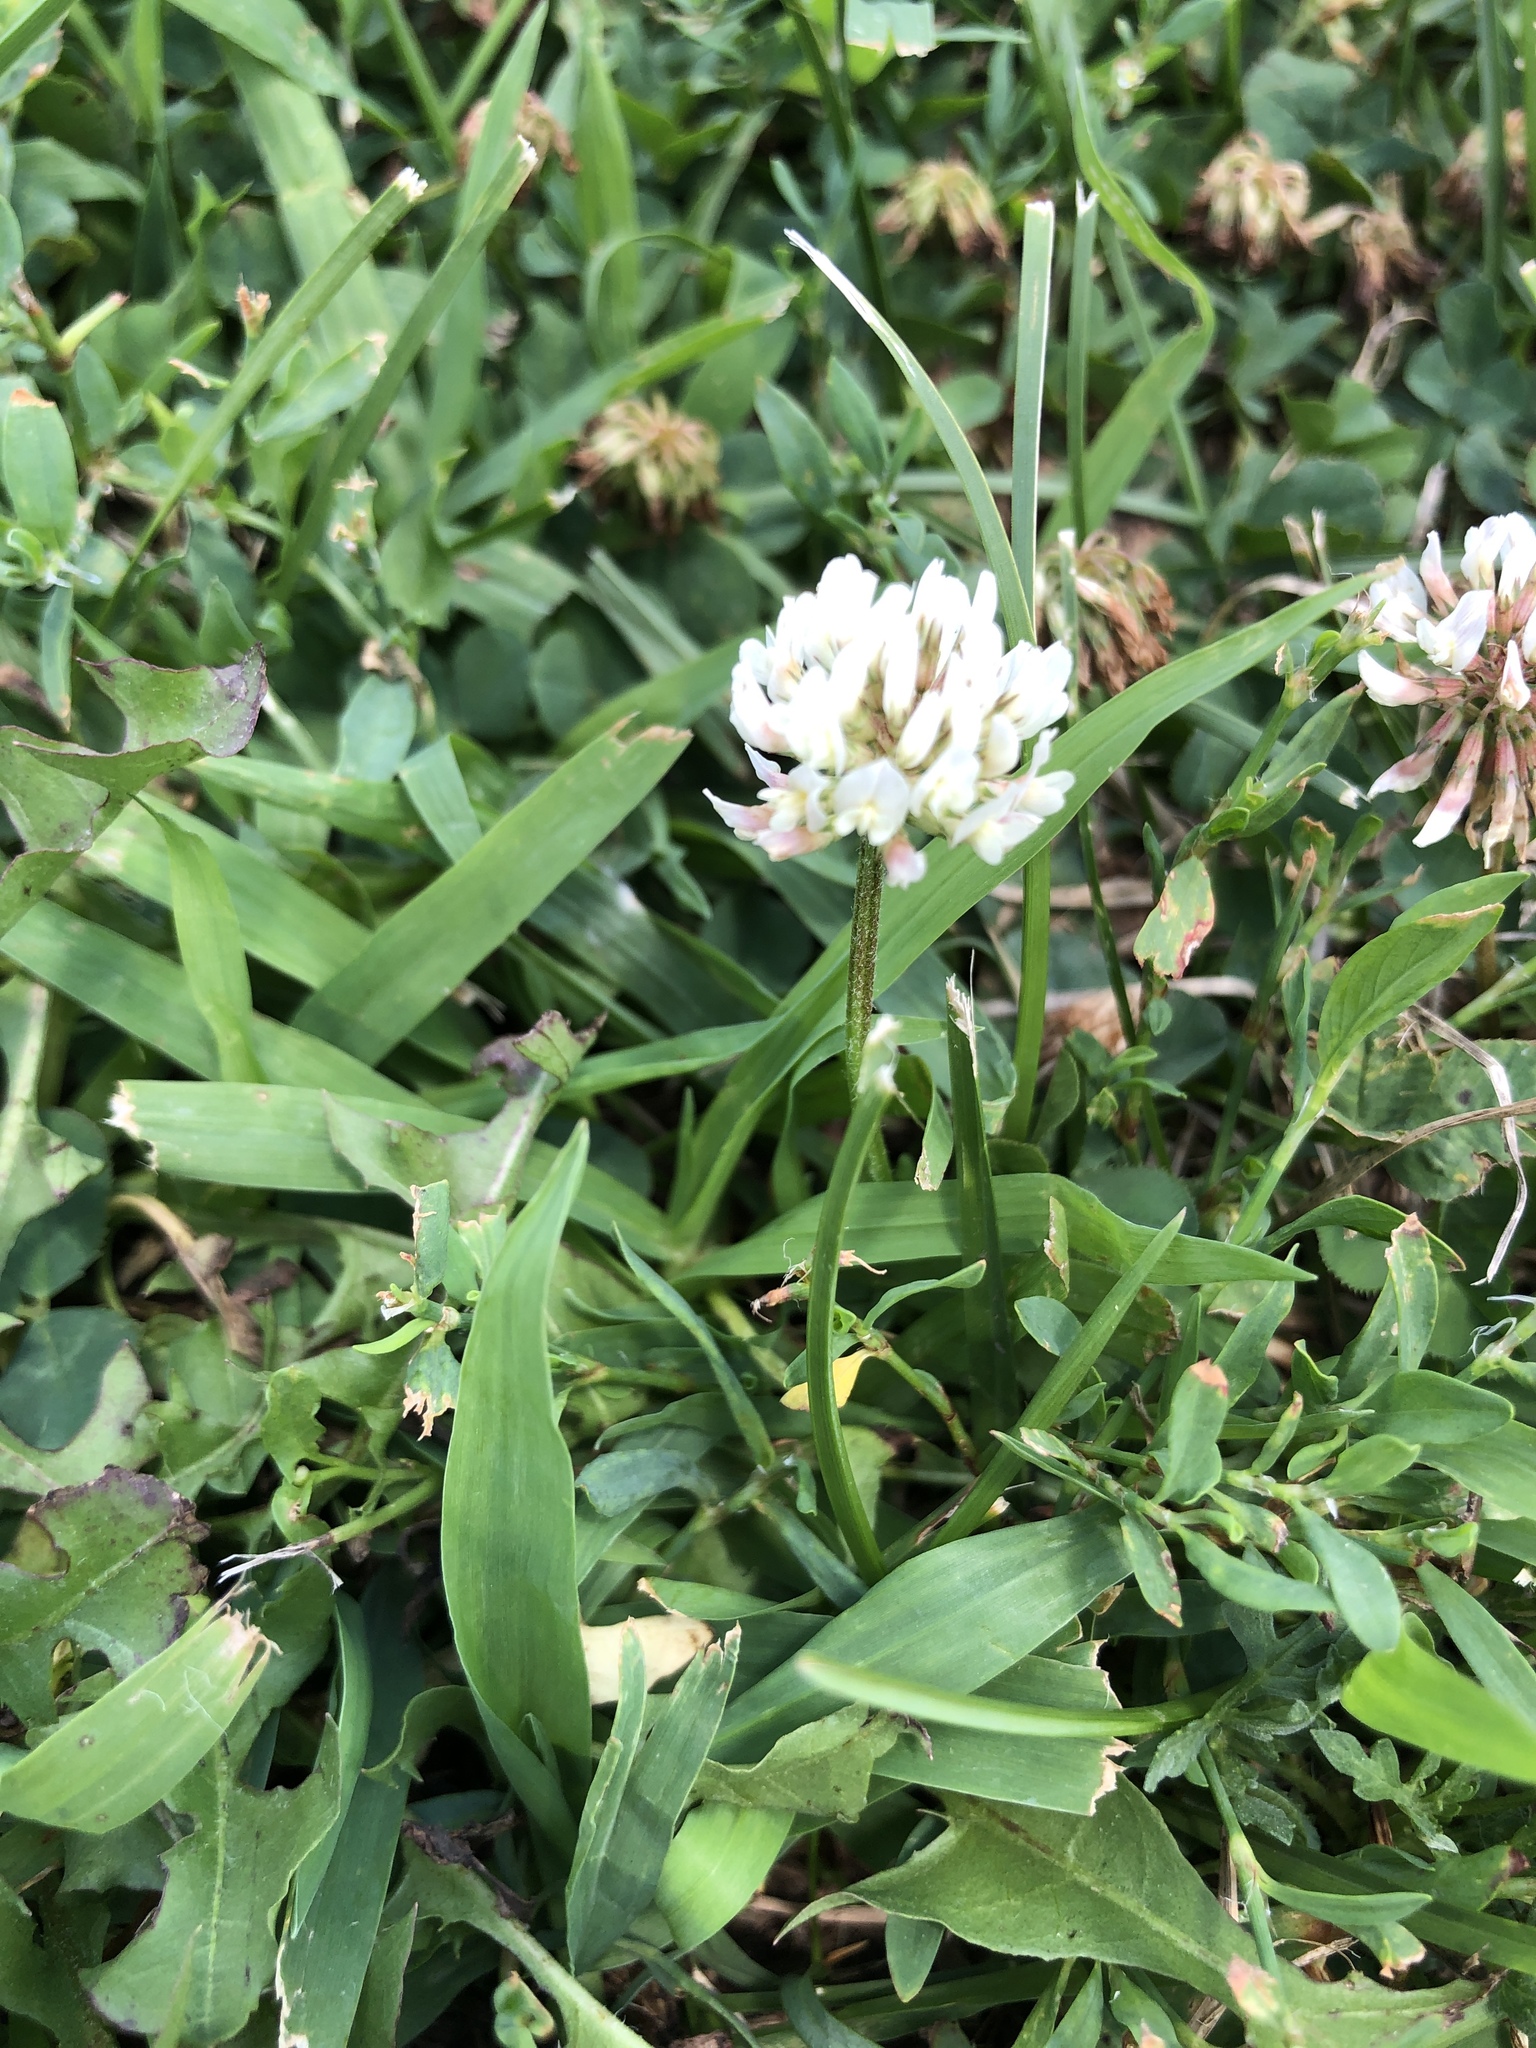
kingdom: Plantae
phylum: Tracheophyta
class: Magnoliopsida
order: Fabales
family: Fabaceae
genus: Trifolium
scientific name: Trifolium repens
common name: White clover
